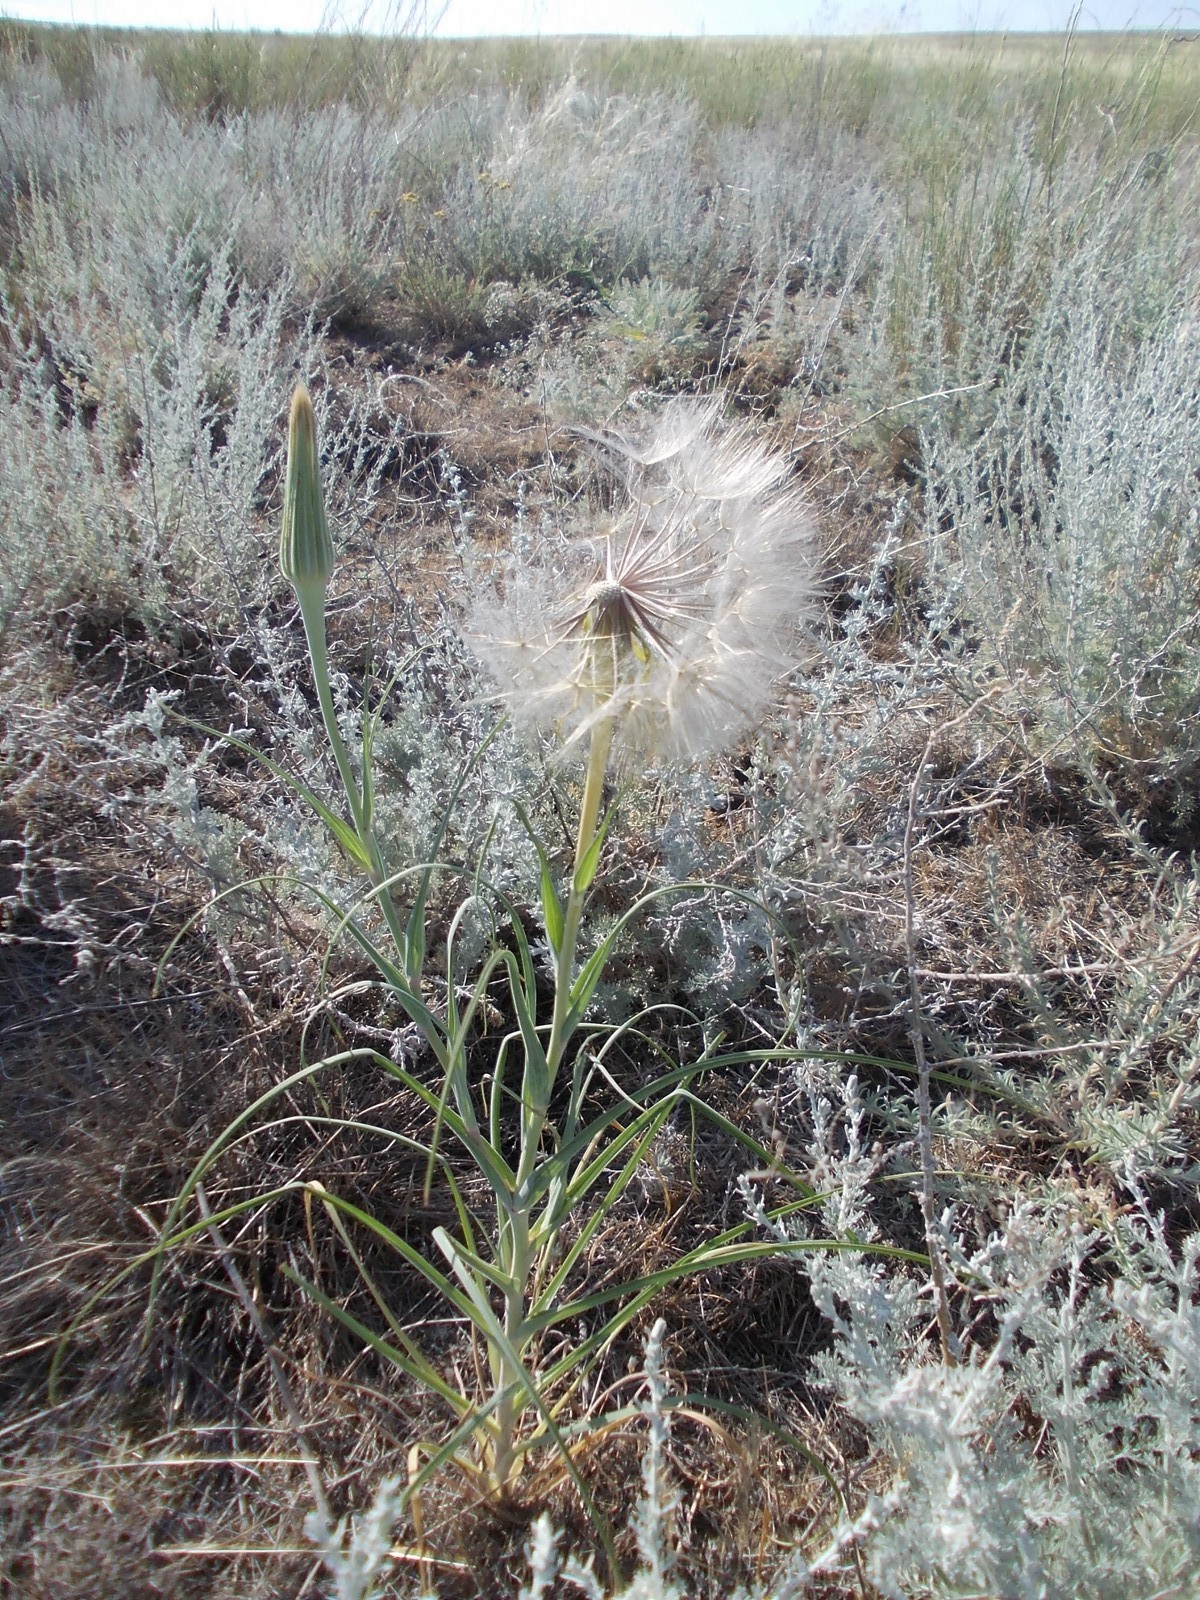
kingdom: Plantae
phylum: Tracheophyta
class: Magnoliopsida
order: Asterales
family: Asteraceae
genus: Tragopogon
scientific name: Tragopogon dubius
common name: Yellow salsify
